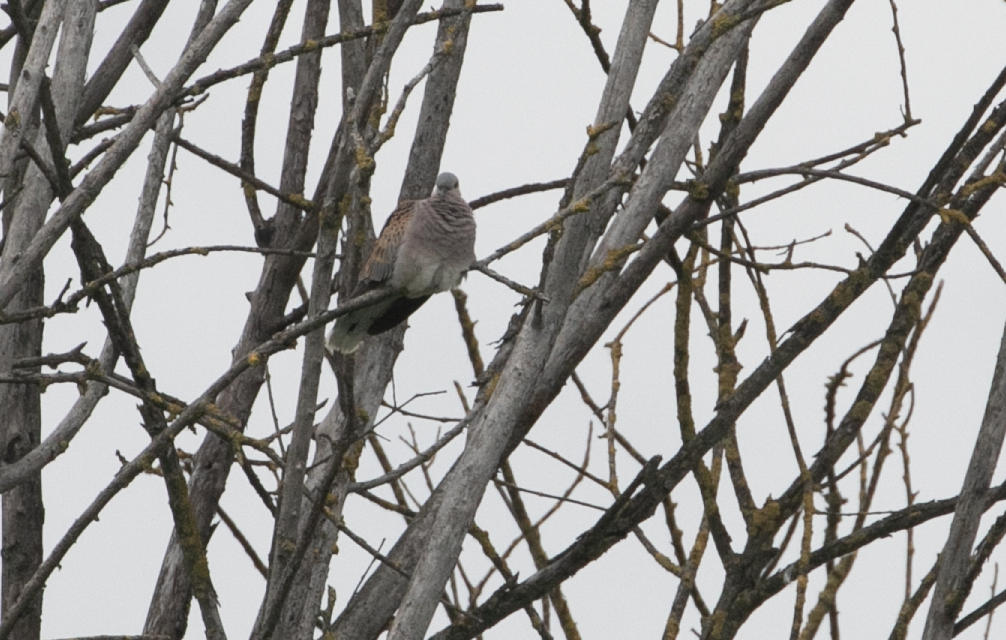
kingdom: Animalia
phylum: Chordata
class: Aves
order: Columbiformes
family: Columbidae
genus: Streptopelia
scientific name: Streptopelia turtur
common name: European turtle dove
